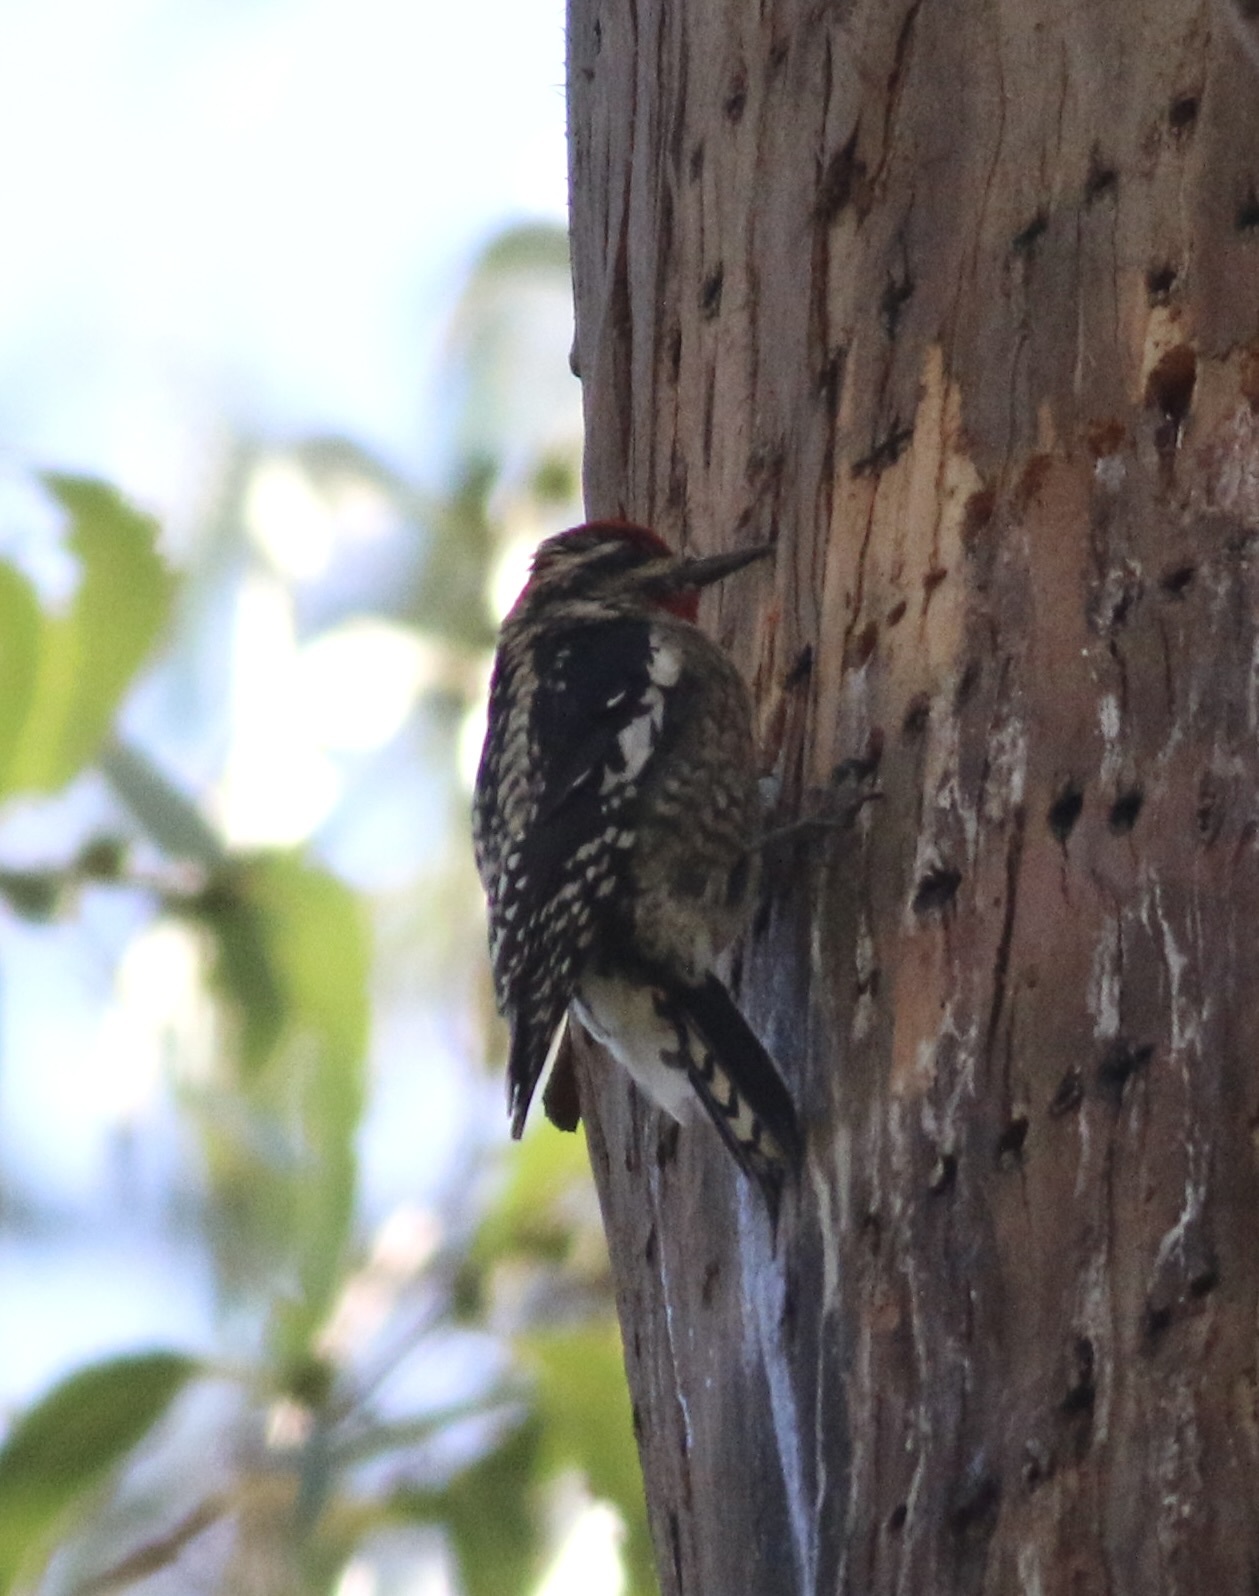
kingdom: Animalia
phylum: Chordata
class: Aves
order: Piciformes
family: Picidae
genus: Sphyrapicus
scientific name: Sphyrapicus nuchalis
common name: Red-naped sapsucker
